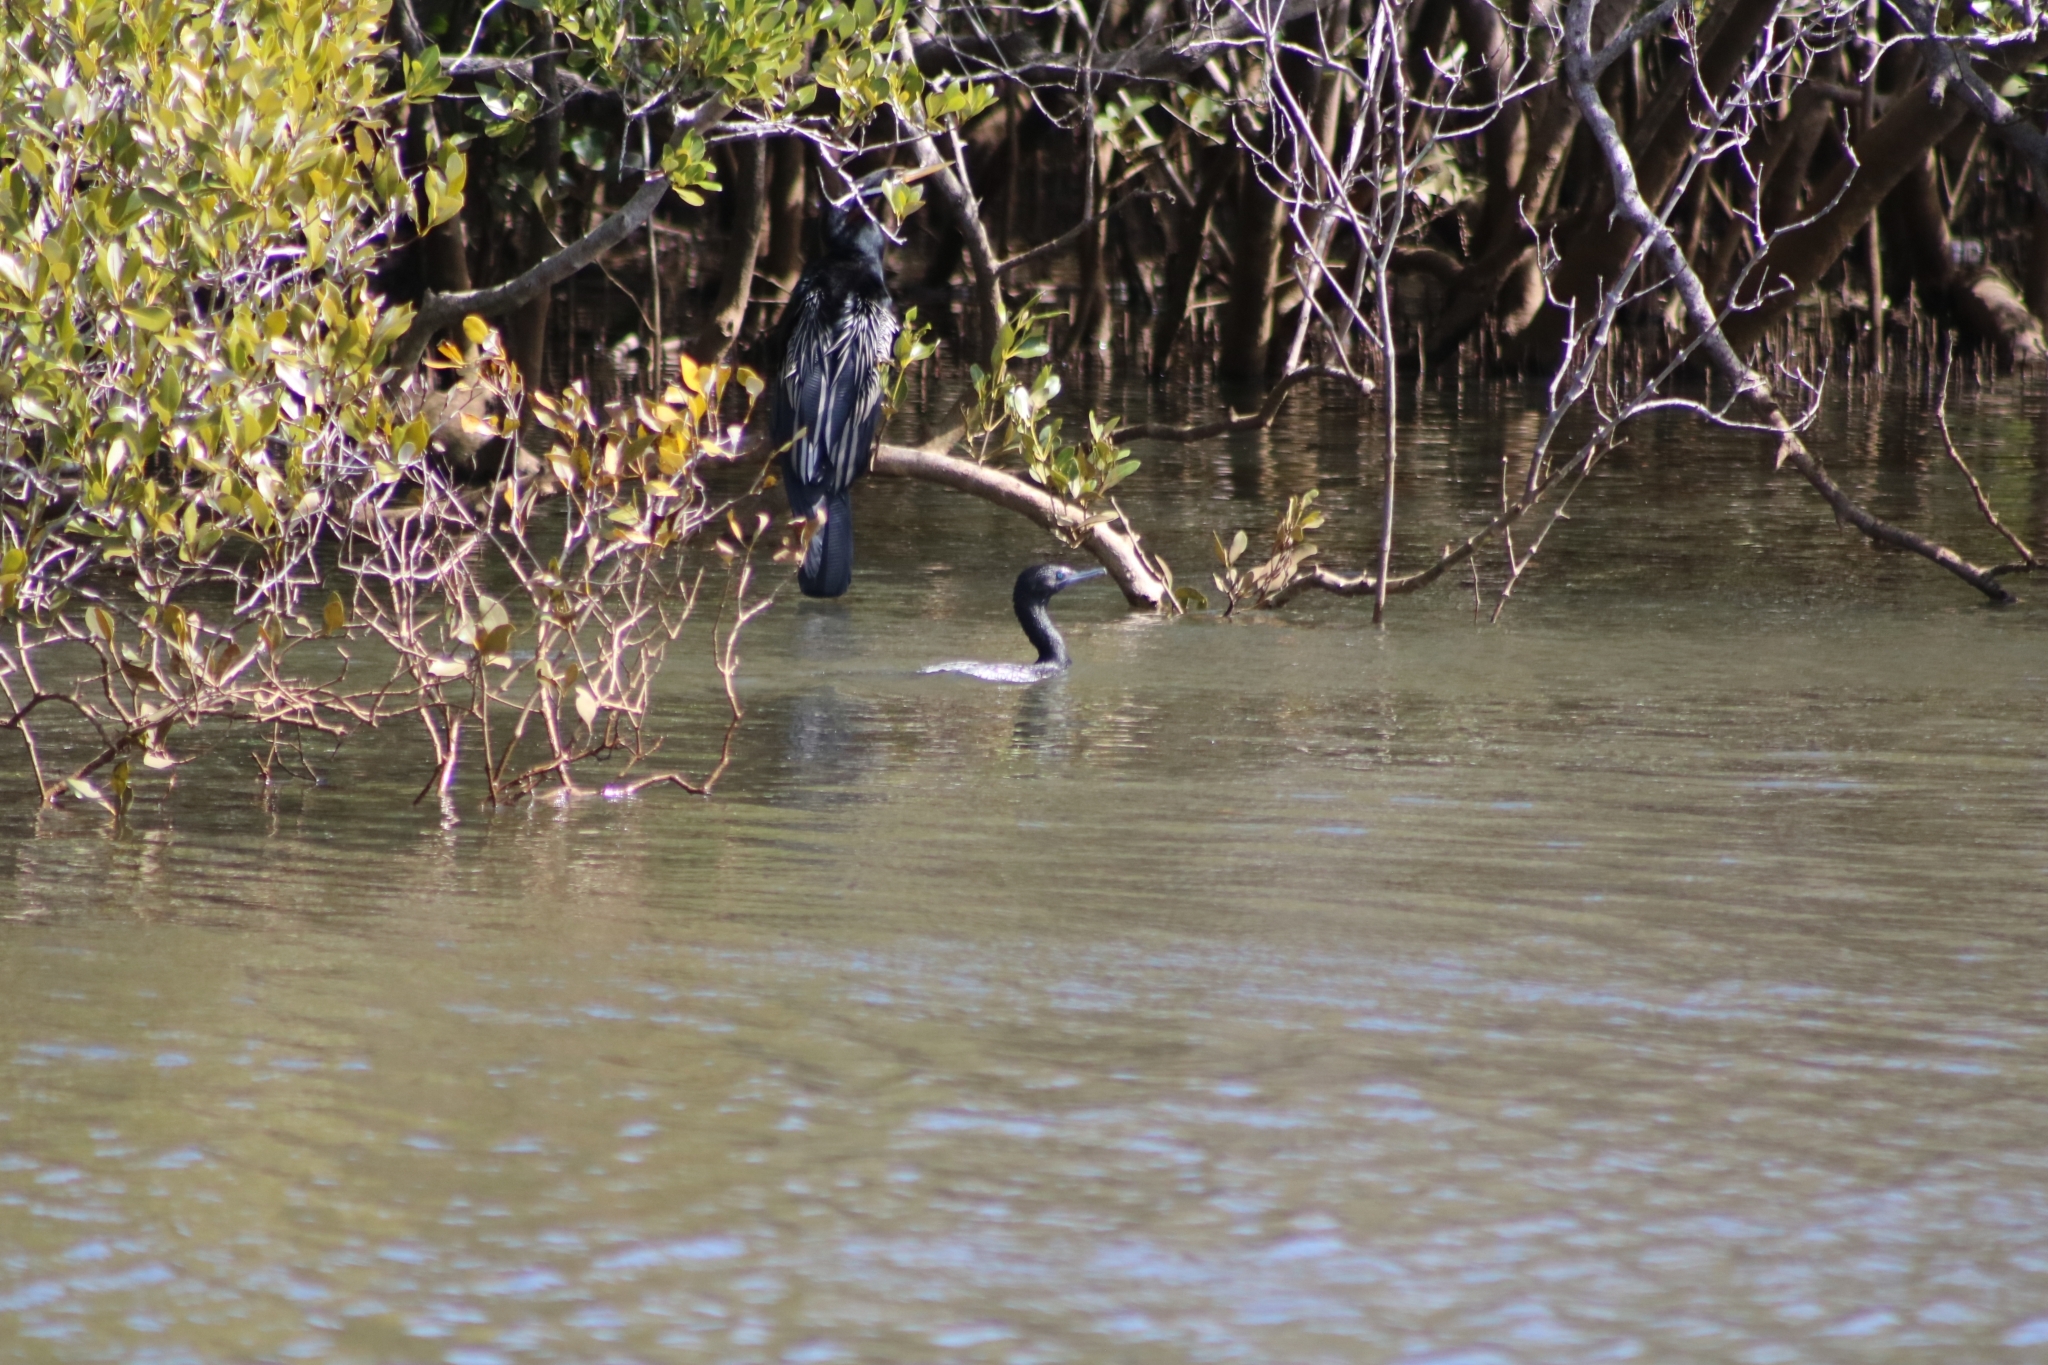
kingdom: Animalia
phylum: Chordata
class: Aves
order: Suliformes
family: Phalacrocoracidae
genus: Phalacrocorax
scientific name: Phalacrocorax sulcirostris
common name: Little black cormorant
